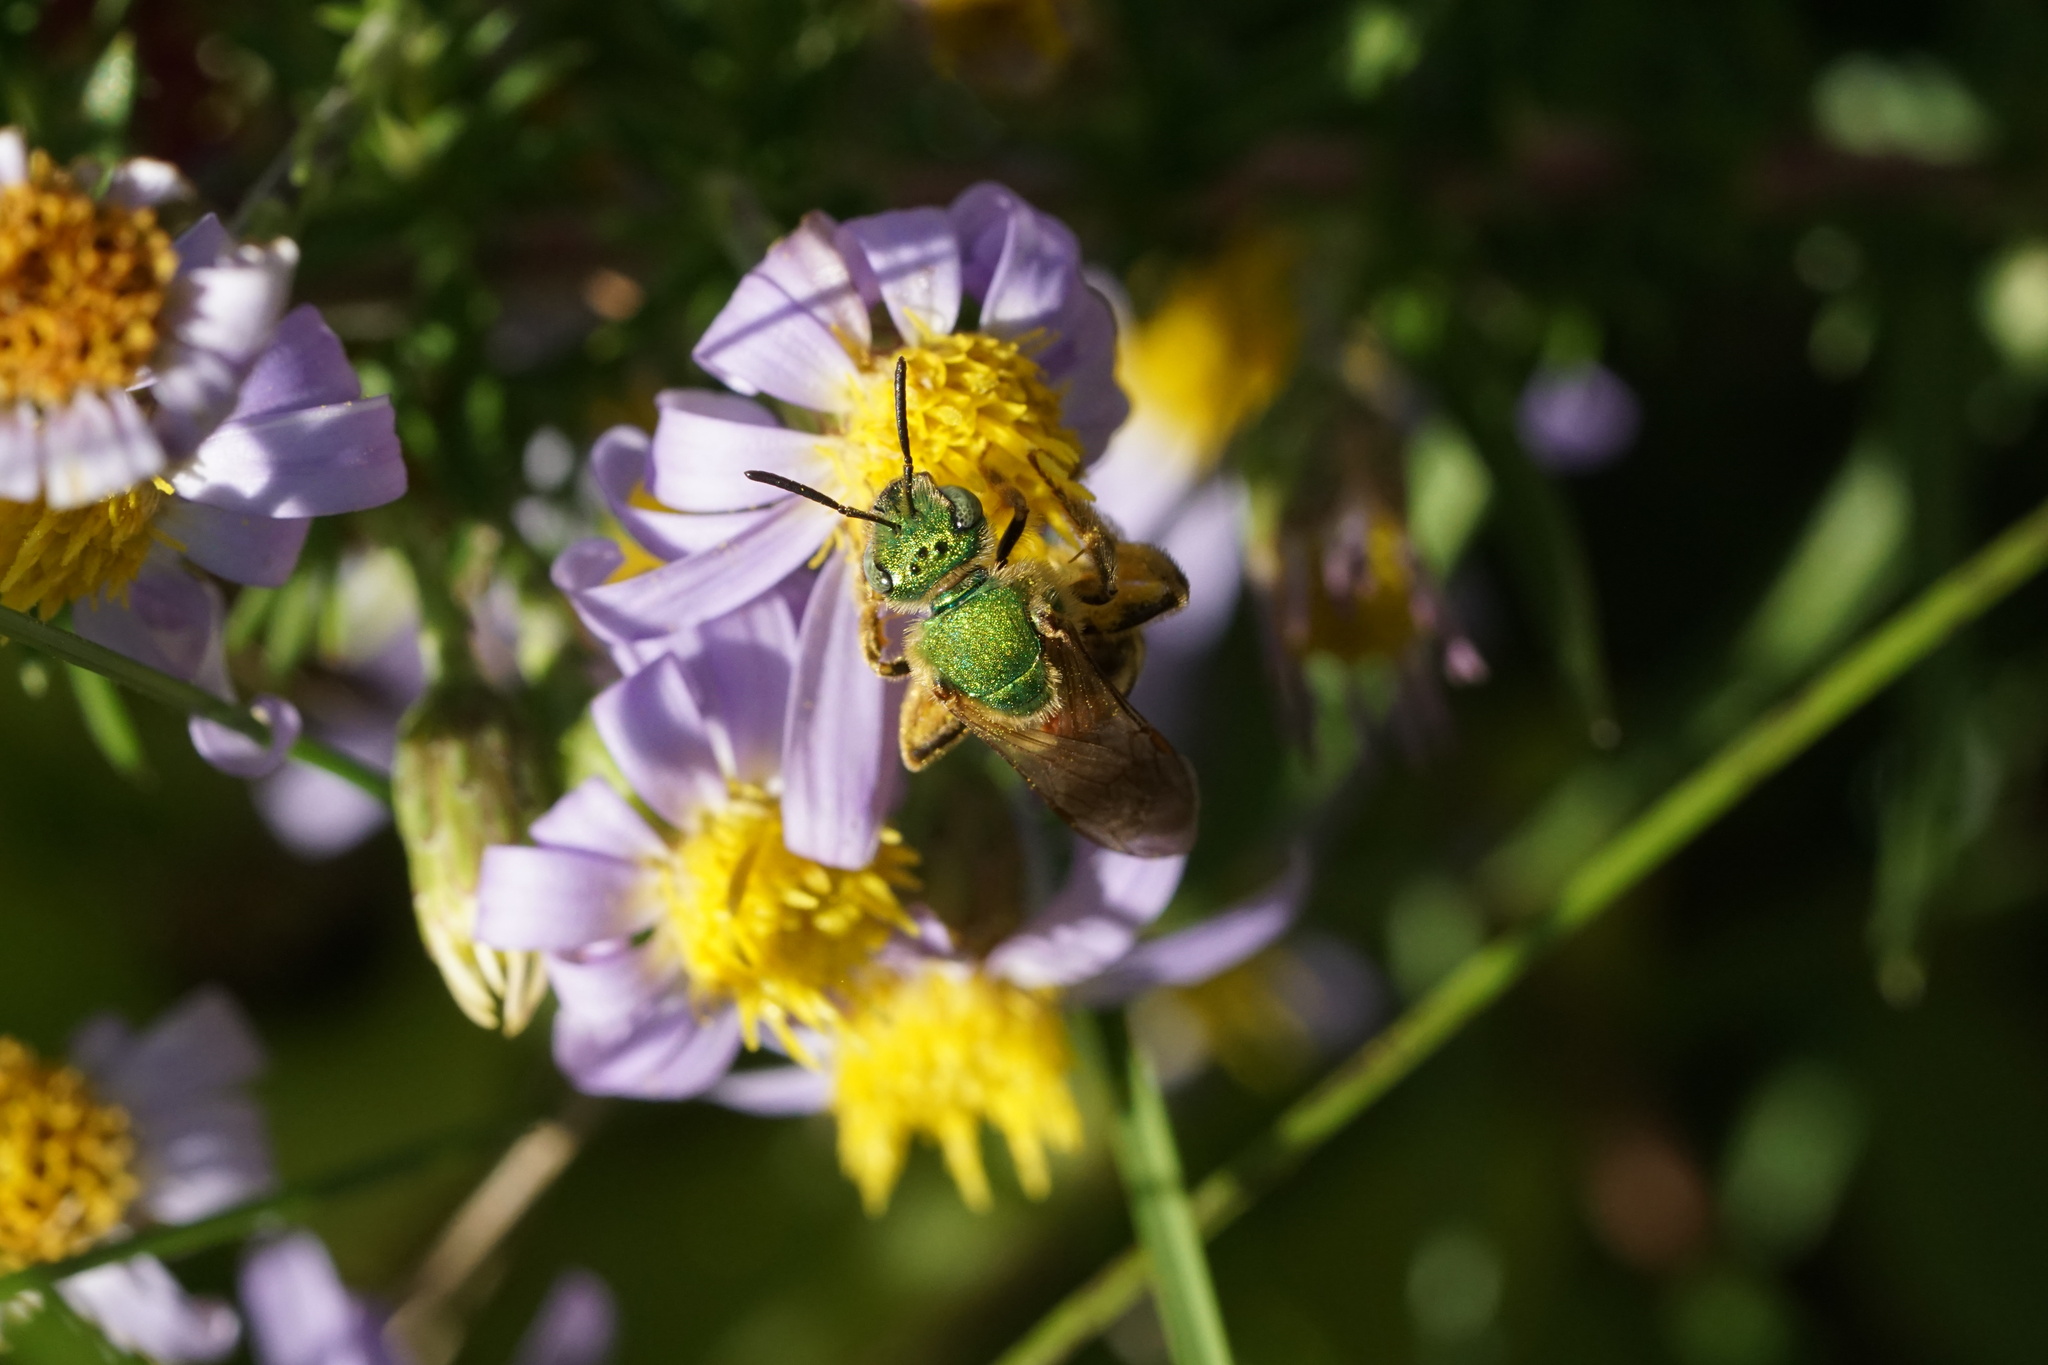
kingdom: Animalia
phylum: Arthropoda
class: Insecta
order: Hymenoptera
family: Halictidae
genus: Agapostemon
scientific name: Agapostemon virescens
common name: Bicolored striped sweat bee
